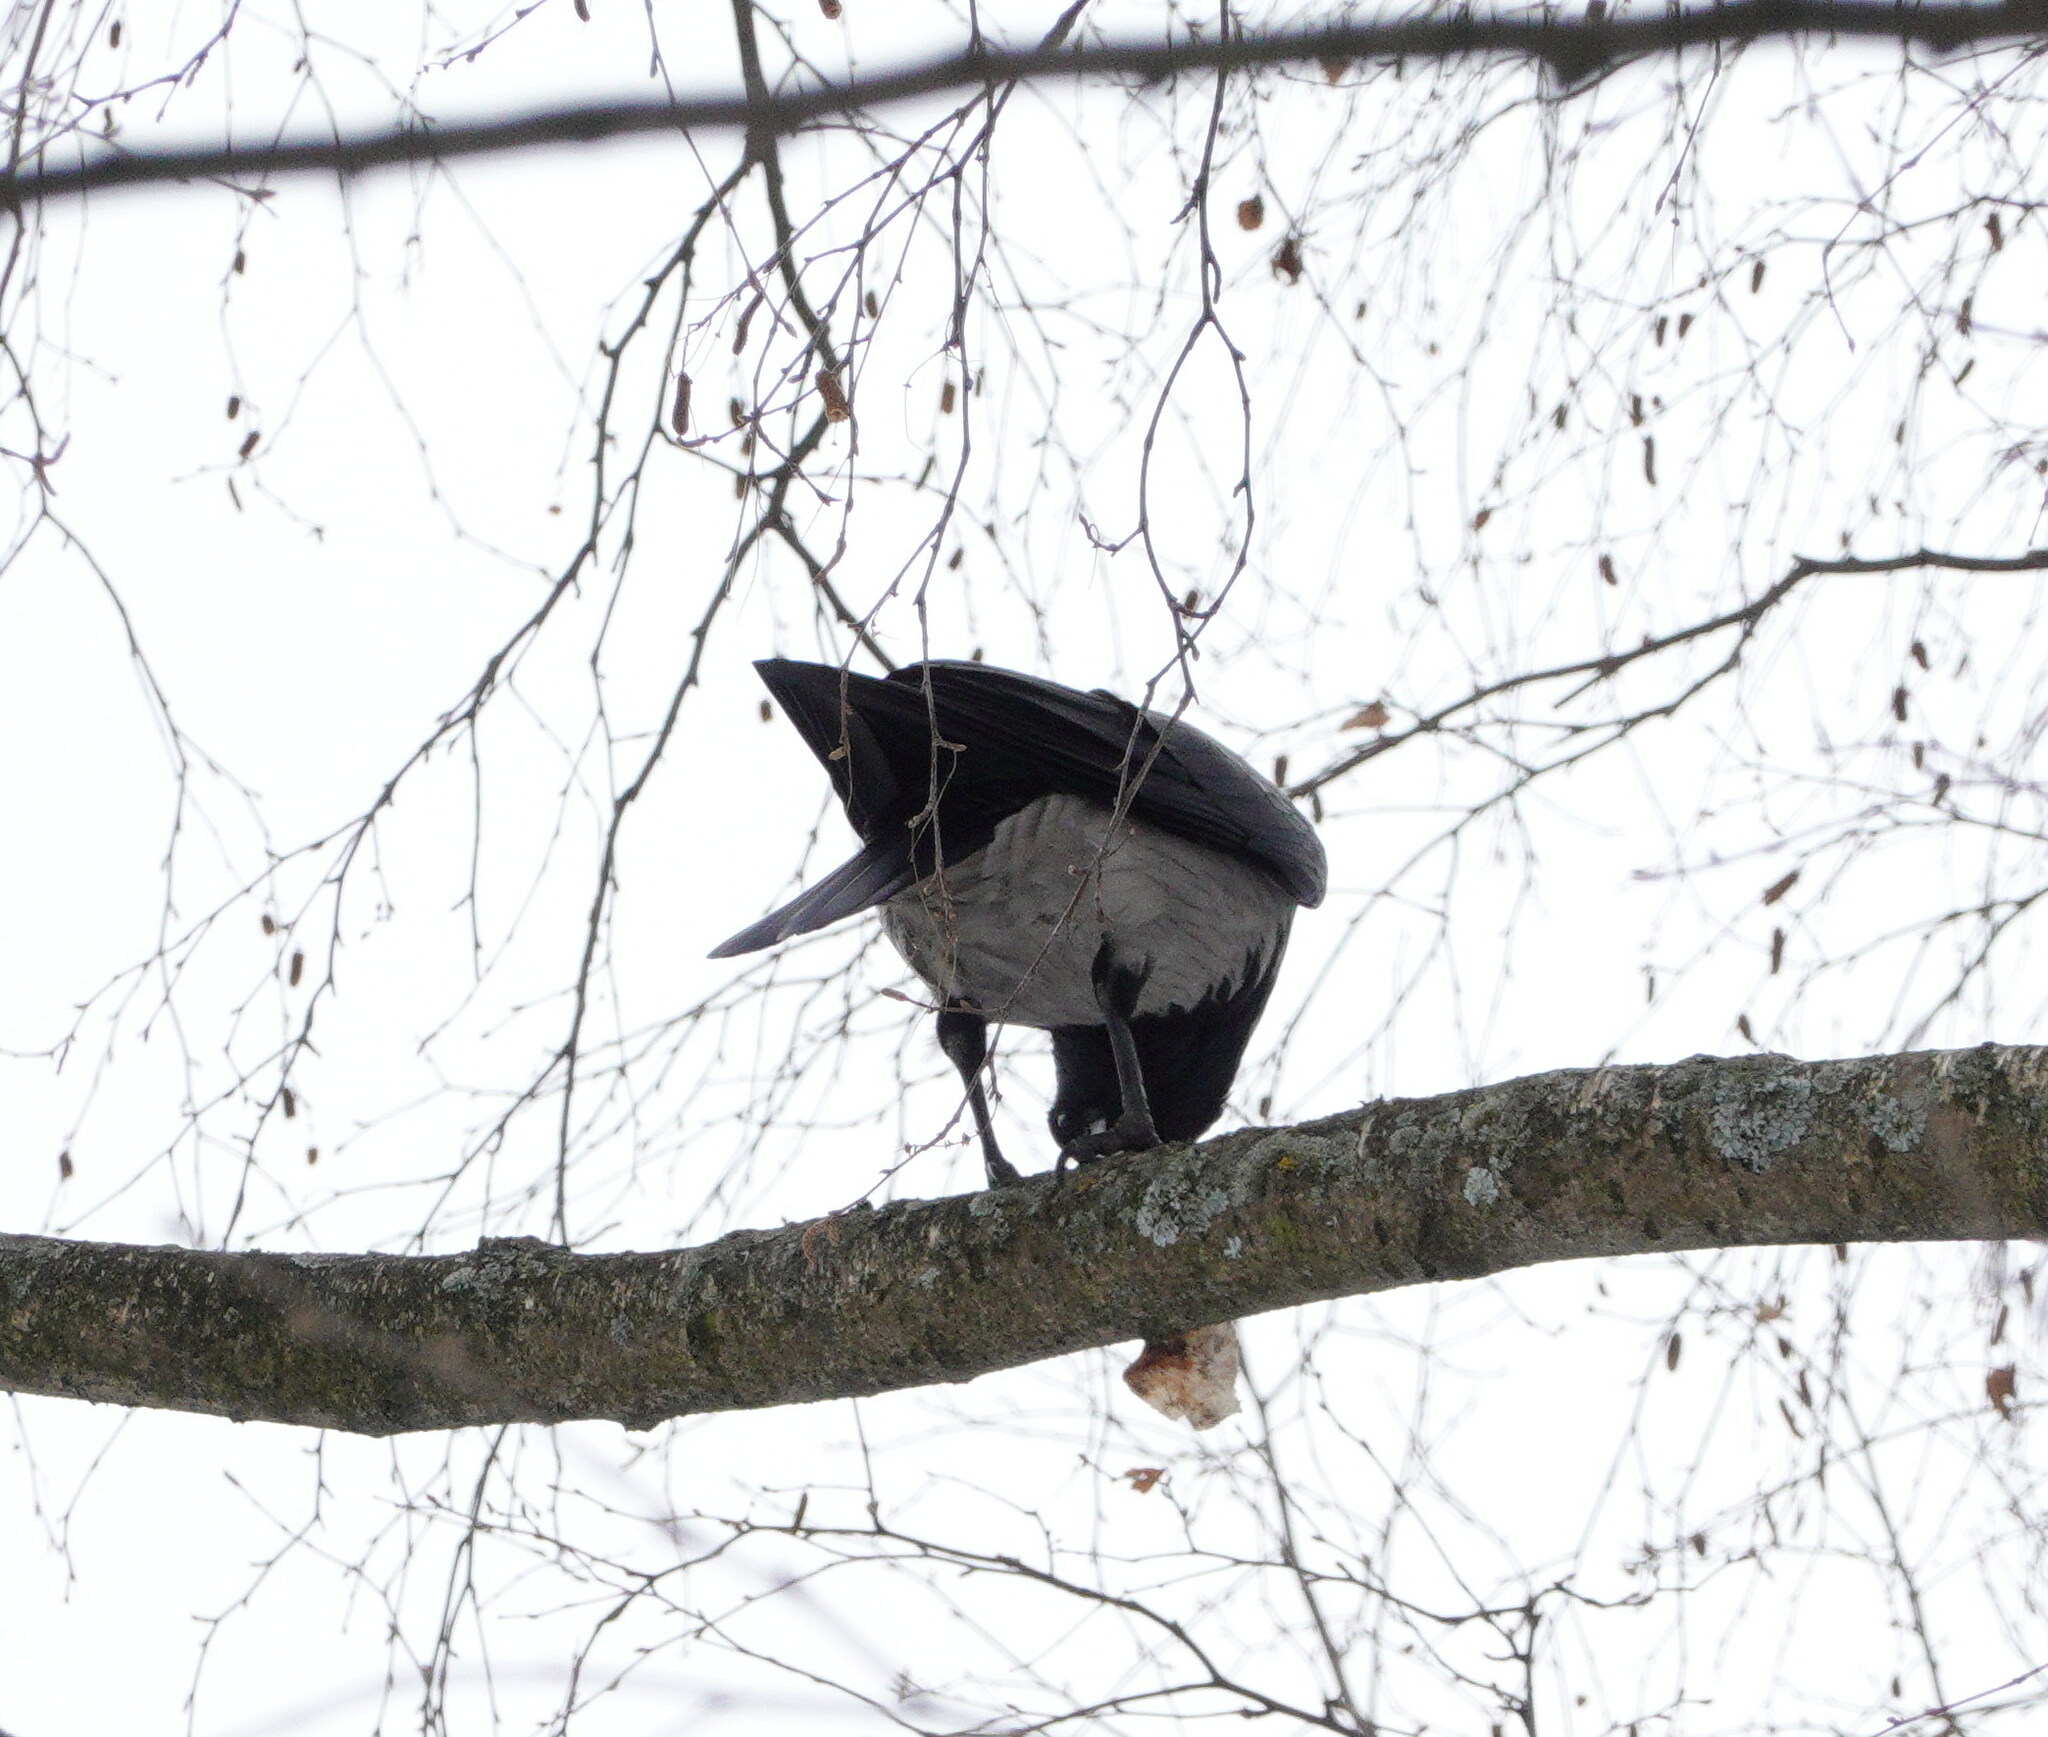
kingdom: Animalia
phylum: Chordata
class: Aves
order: Passeriformes
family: Corvidae
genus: Corvus
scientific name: Corvus cornix
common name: Hooded crow
